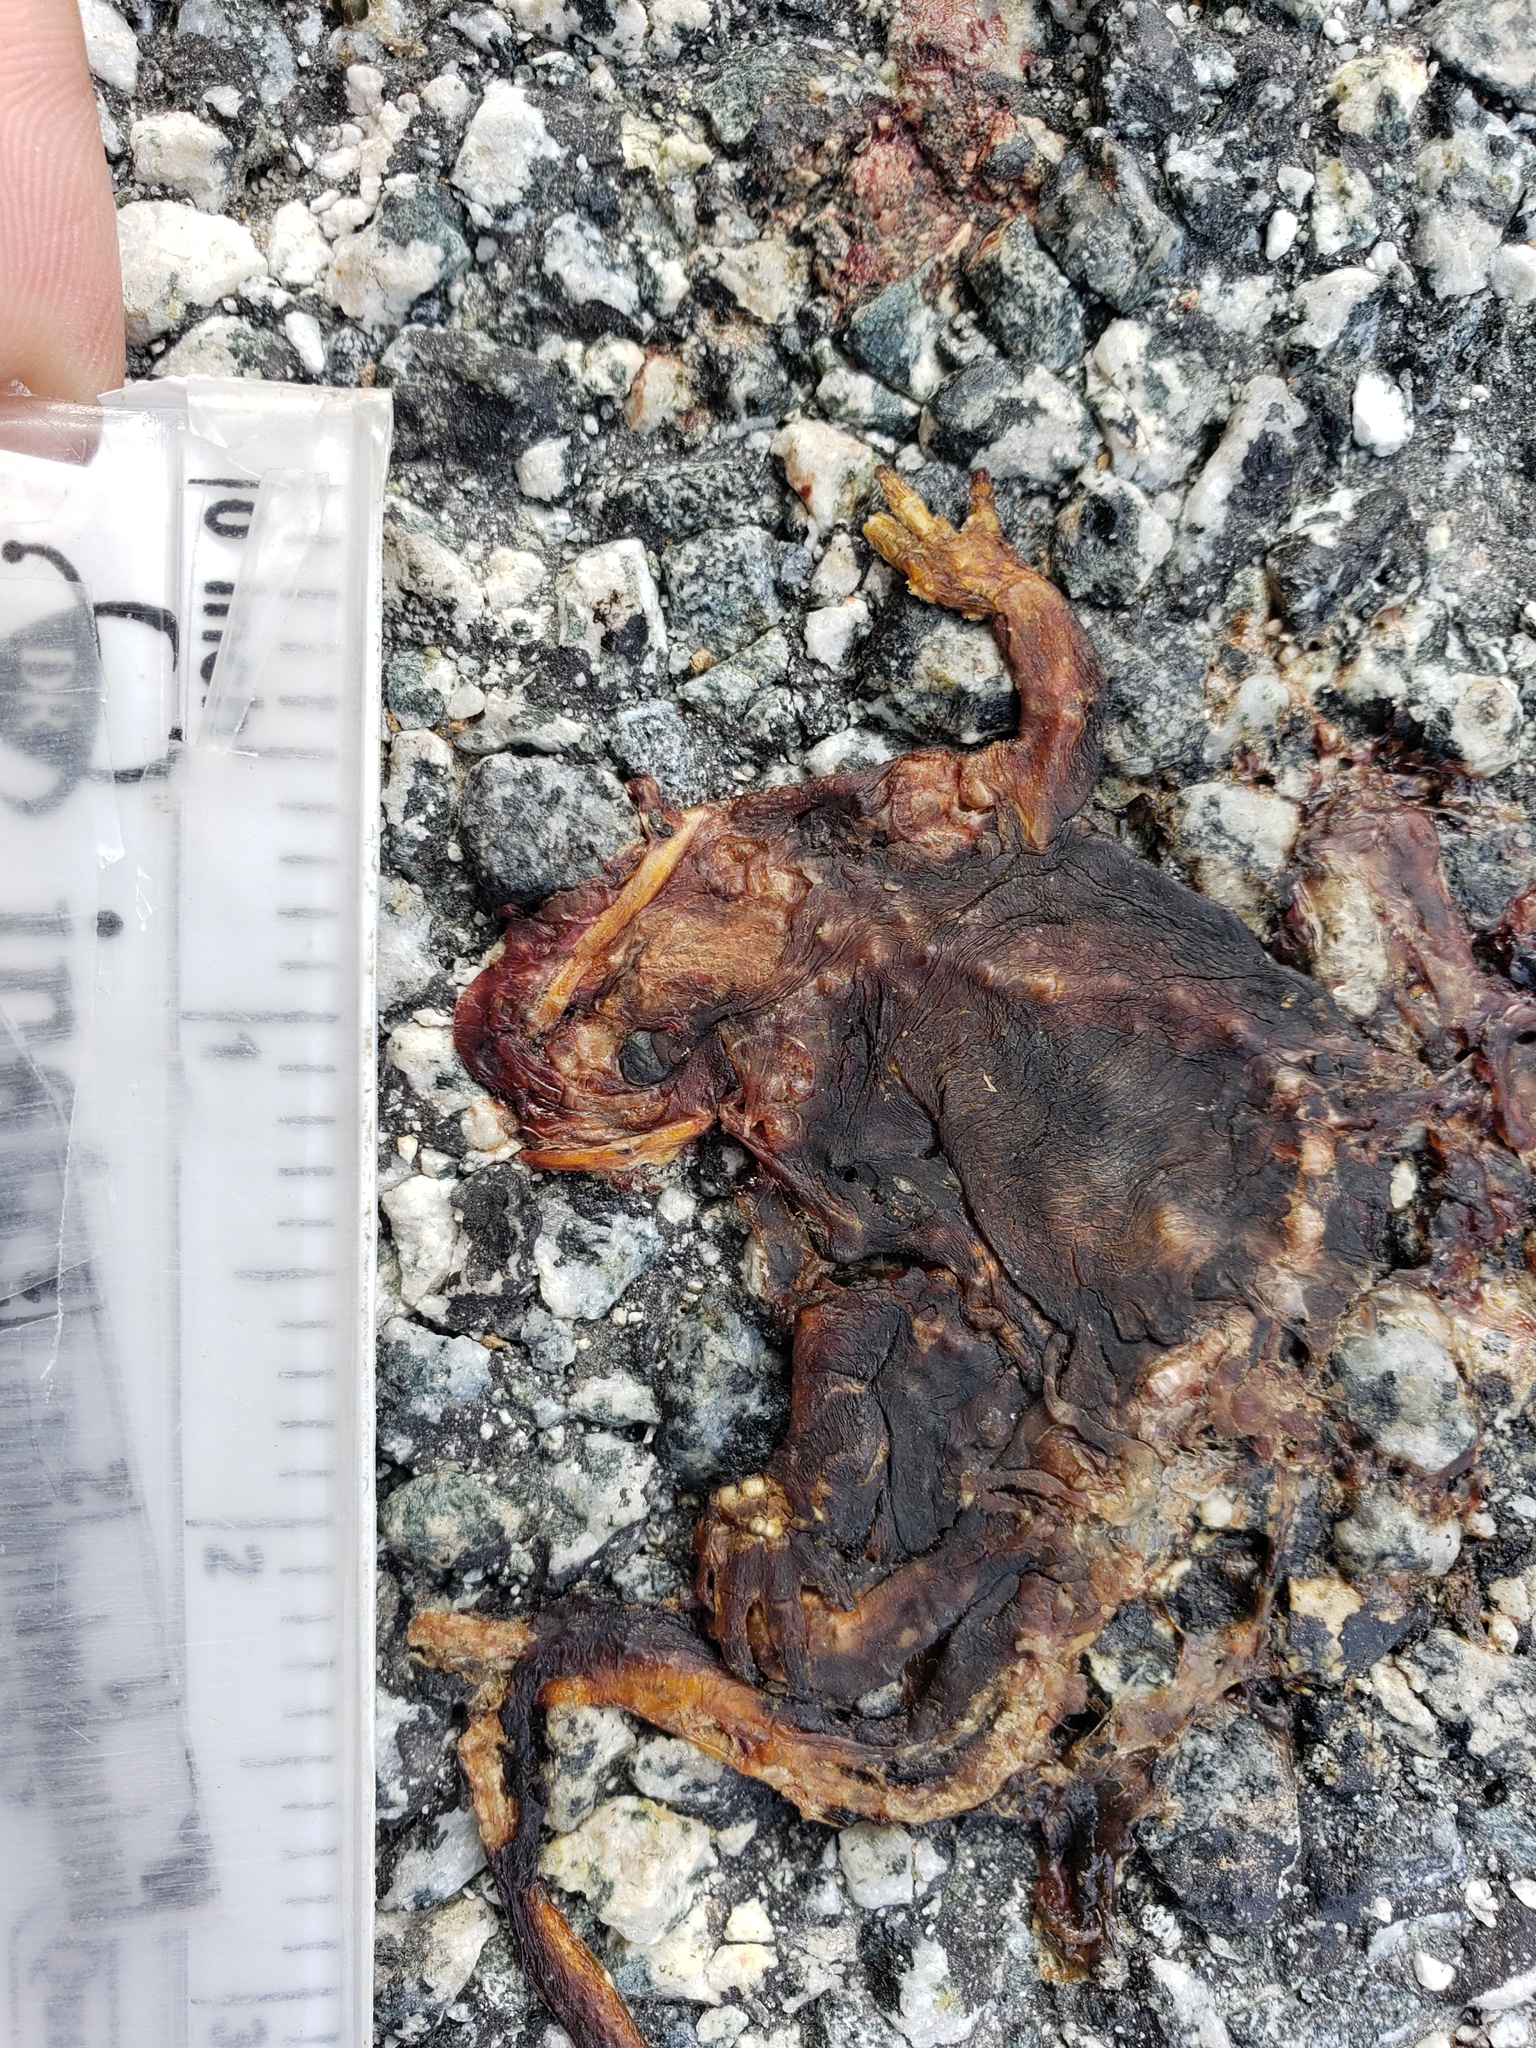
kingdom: Animalia
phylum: Chordata
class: Amphibia
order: Caudata
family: Salamandridae
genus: Taricha
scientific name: Taricha
